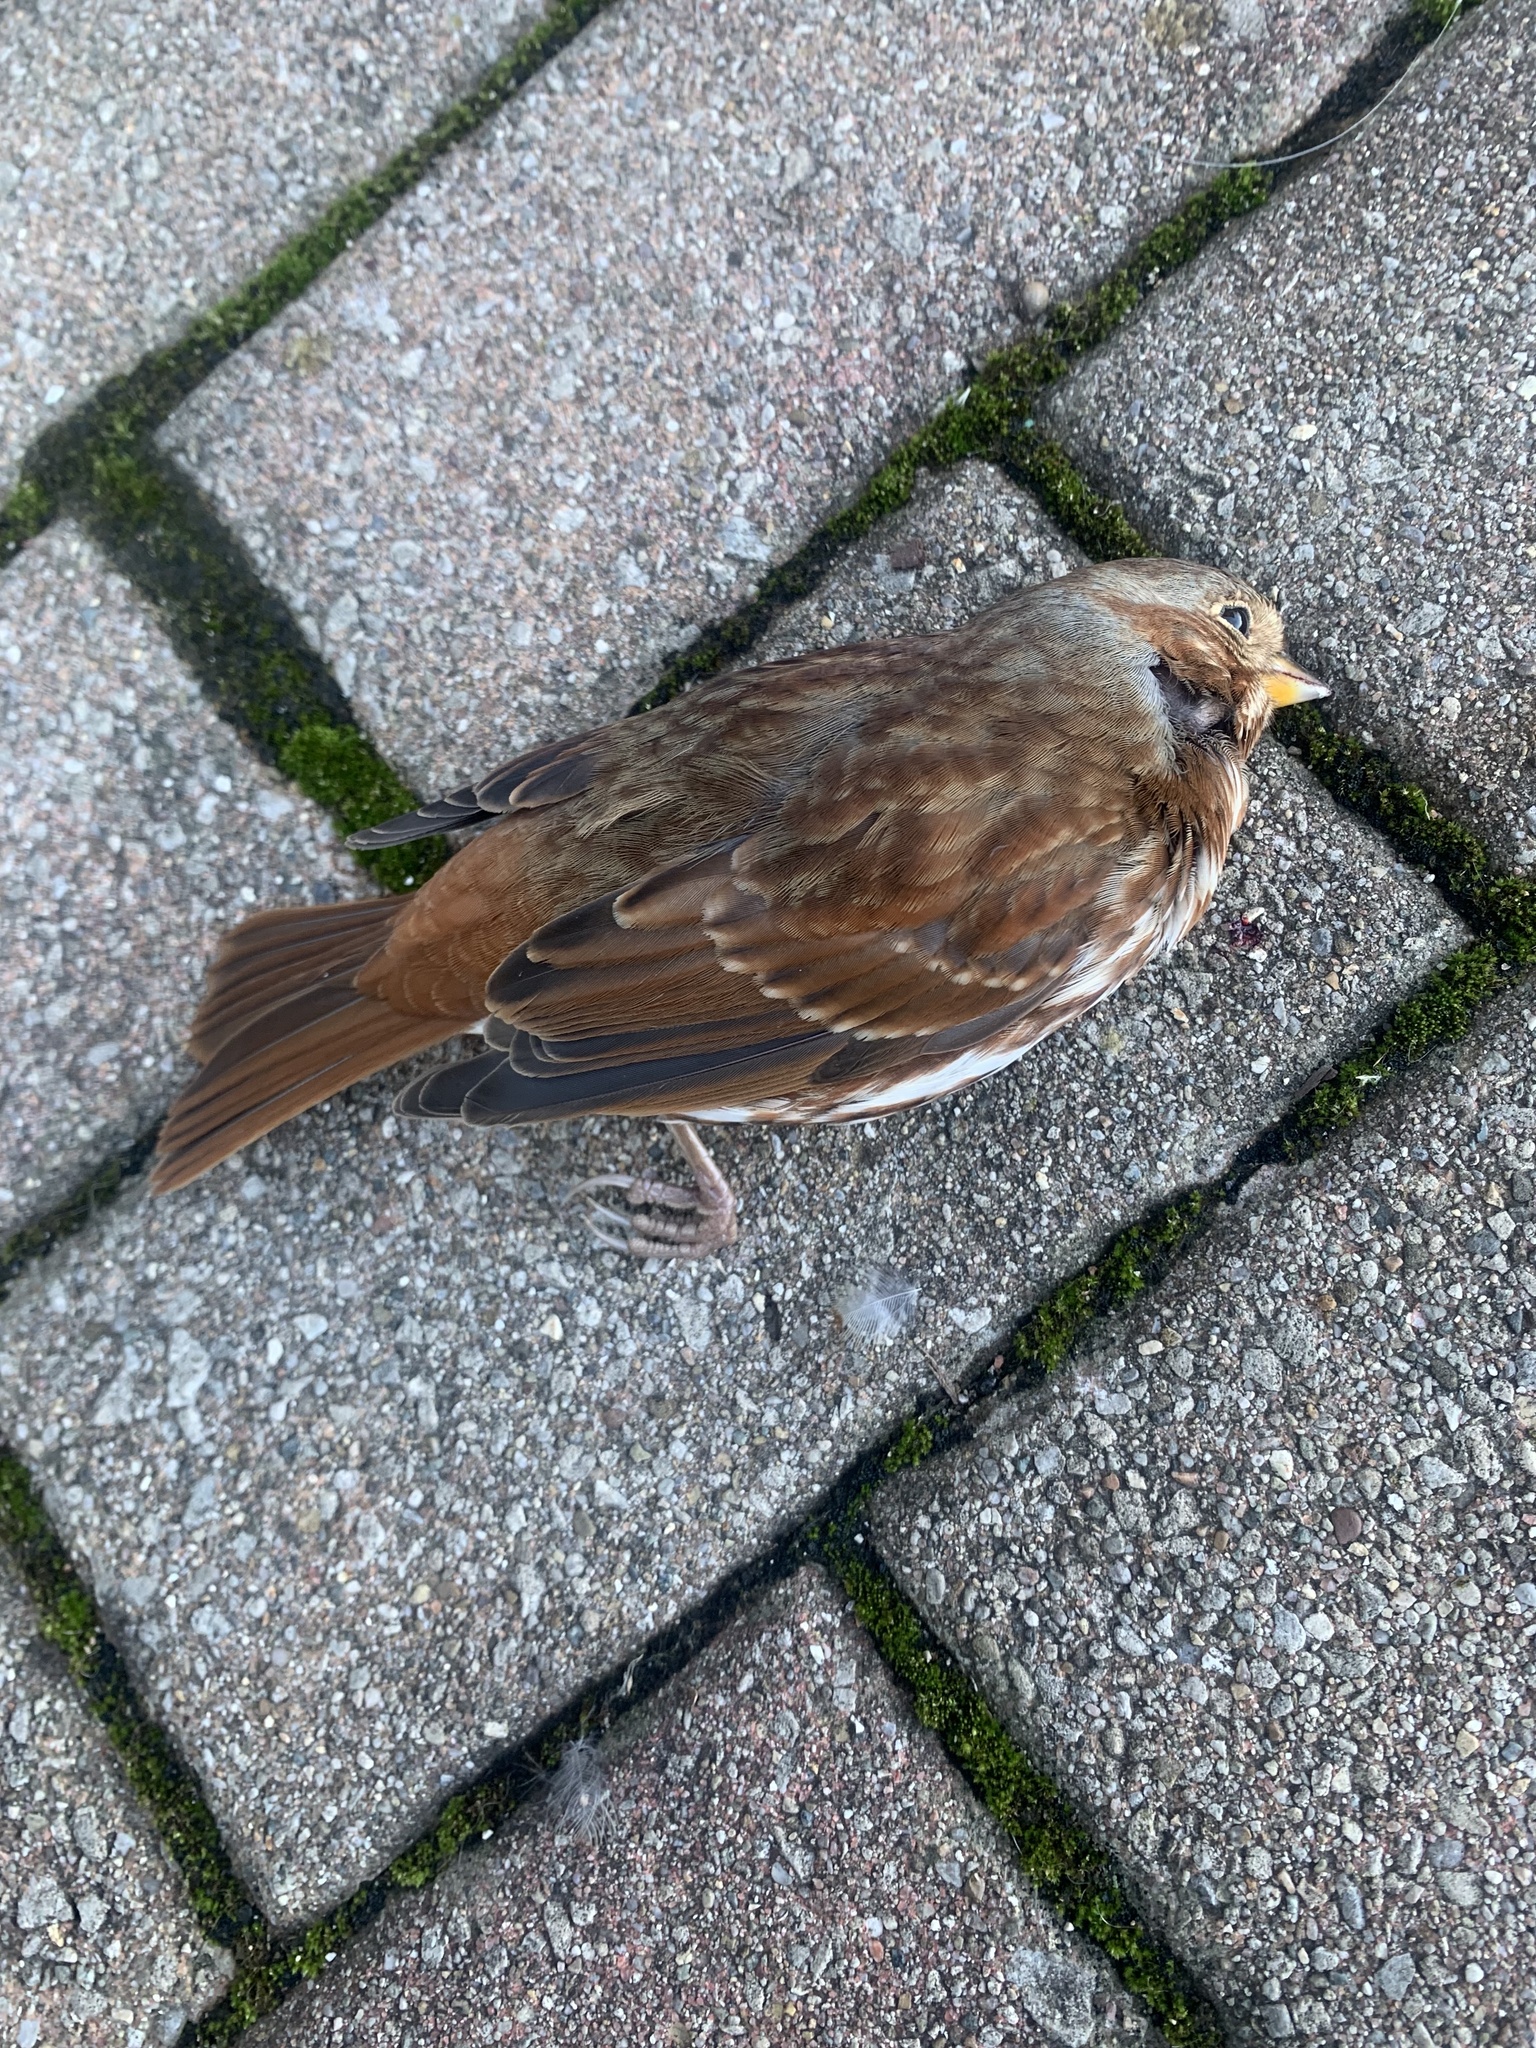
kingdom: Animalia
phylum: Chordata
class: Aves
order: Passeriformes
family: Passerellidae
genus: Passerella
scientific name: Passerella iliaca
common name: Fox sparrow
